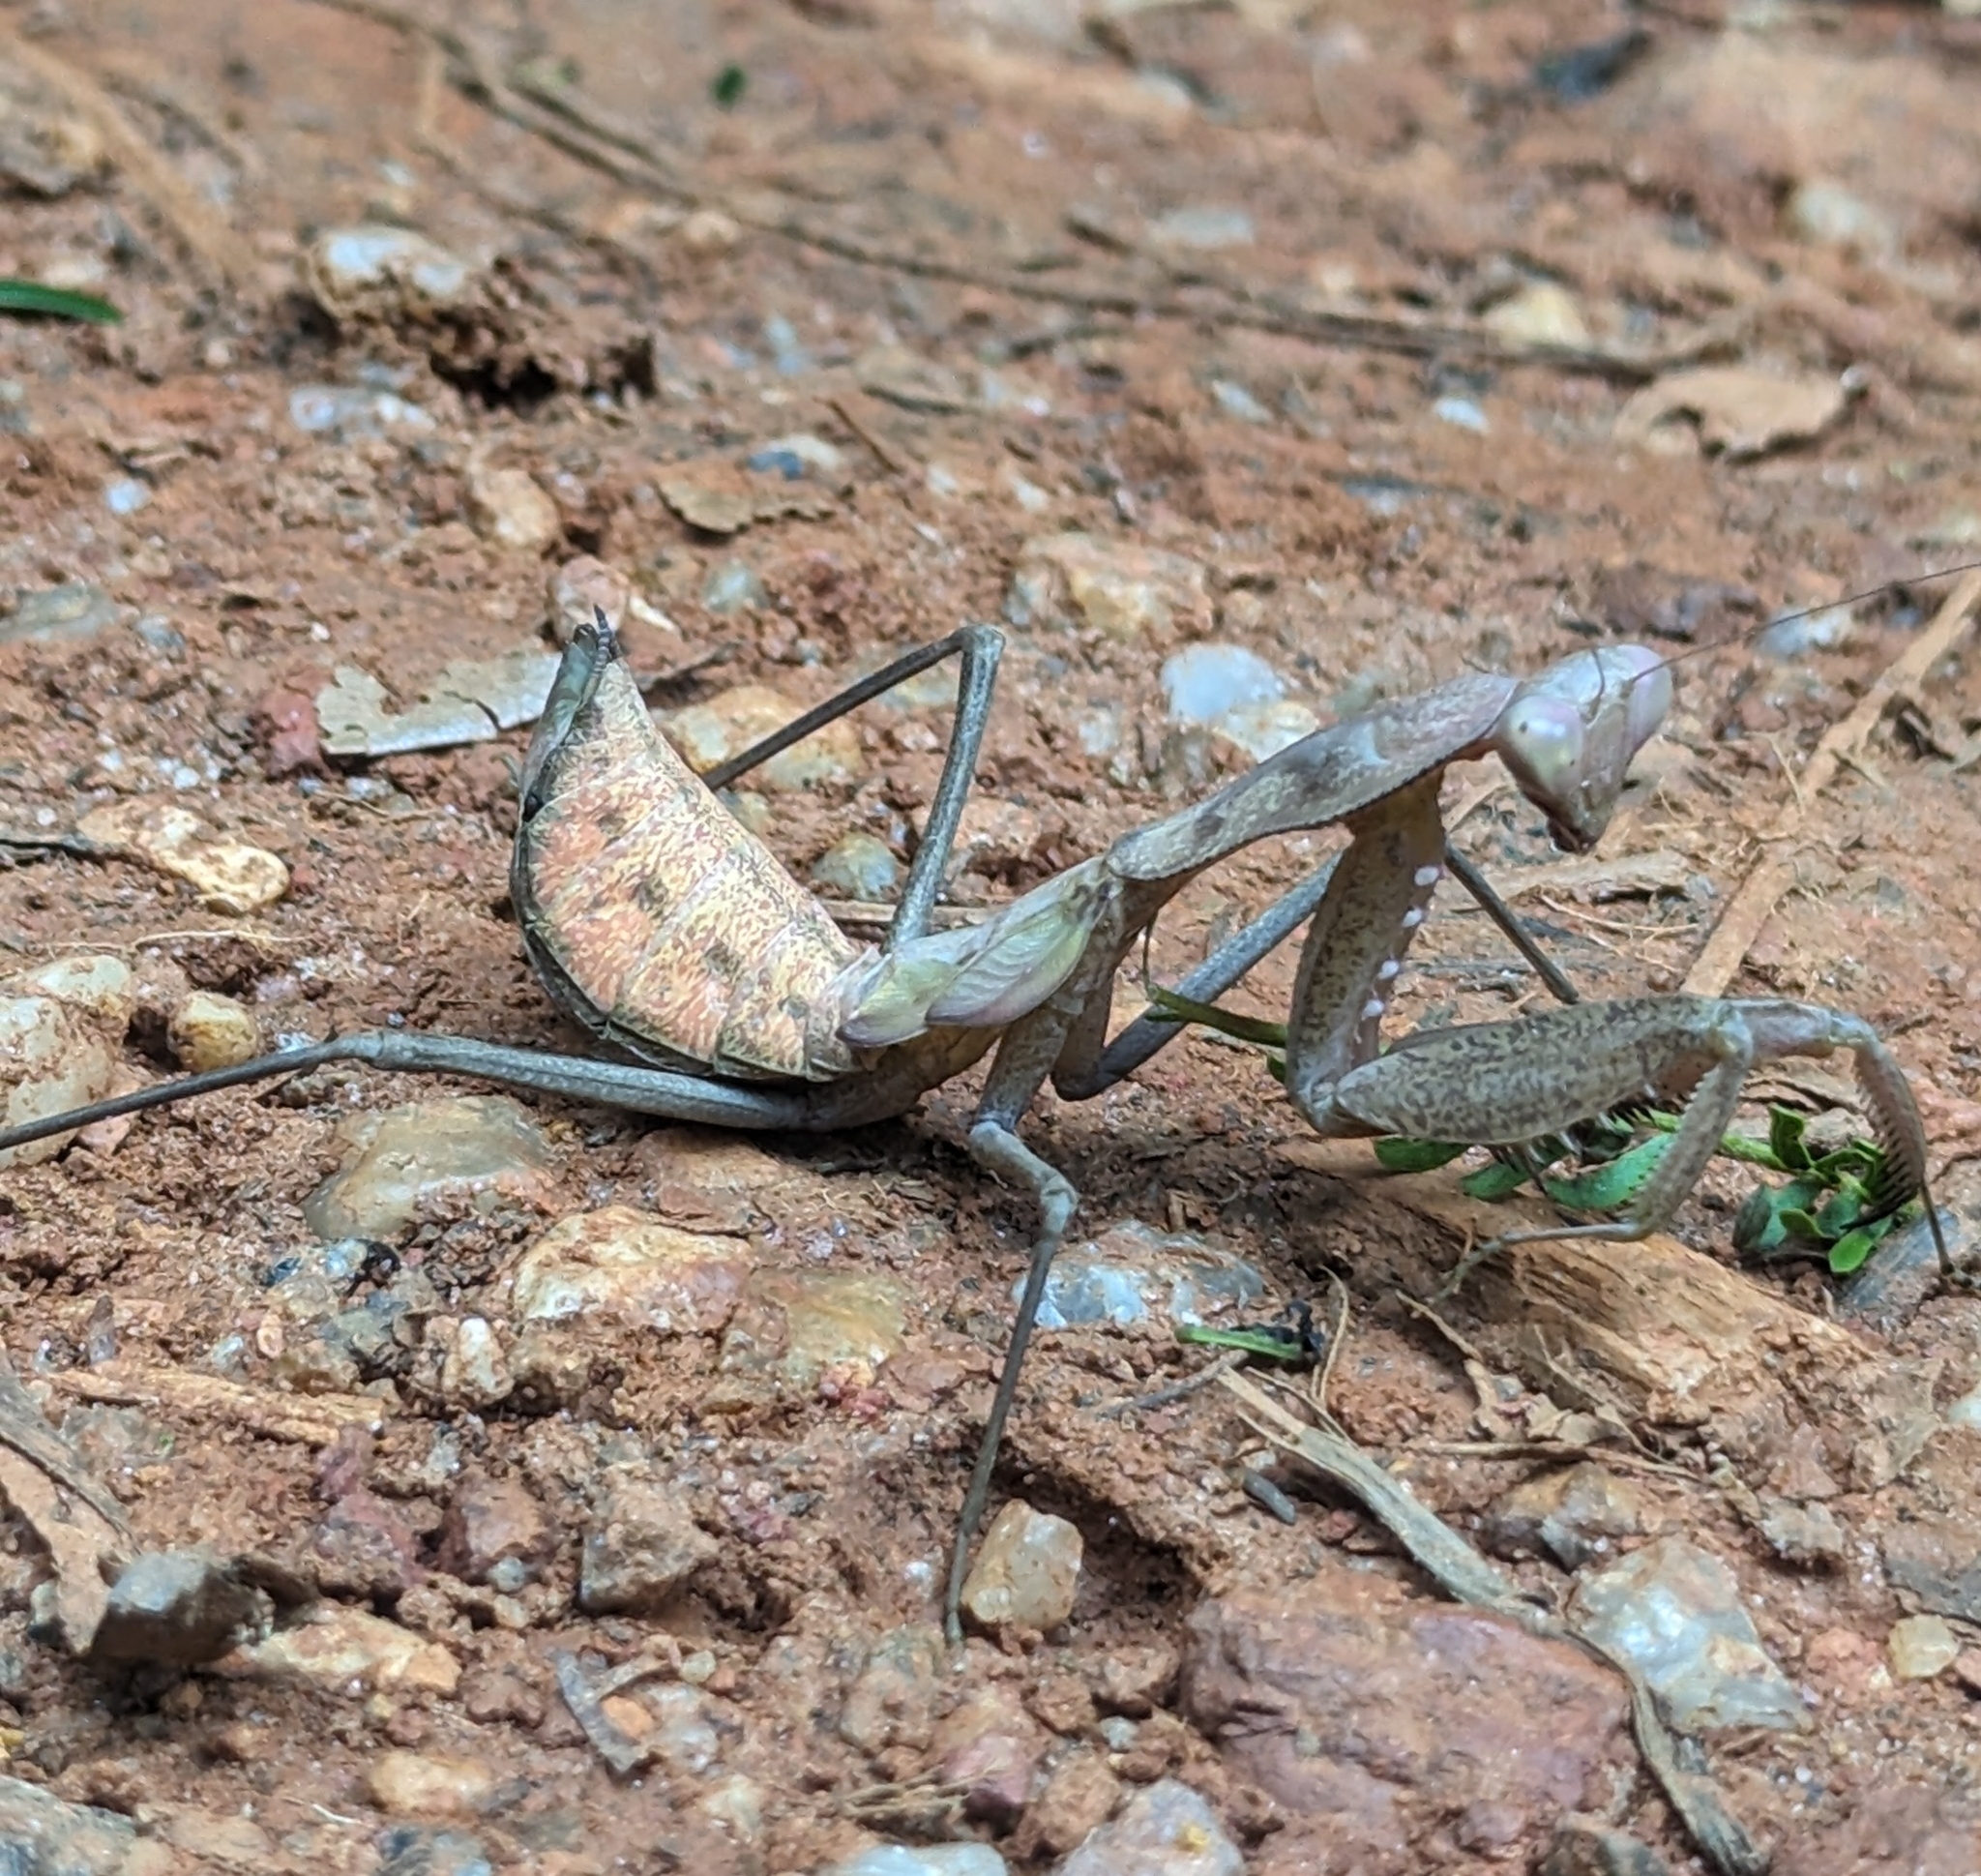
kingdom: Animalia
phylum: Arthropoda
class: Insecta
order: Mantodea
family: Mantidae
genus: Sphodromantis
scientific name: Sphodromantis aurea
